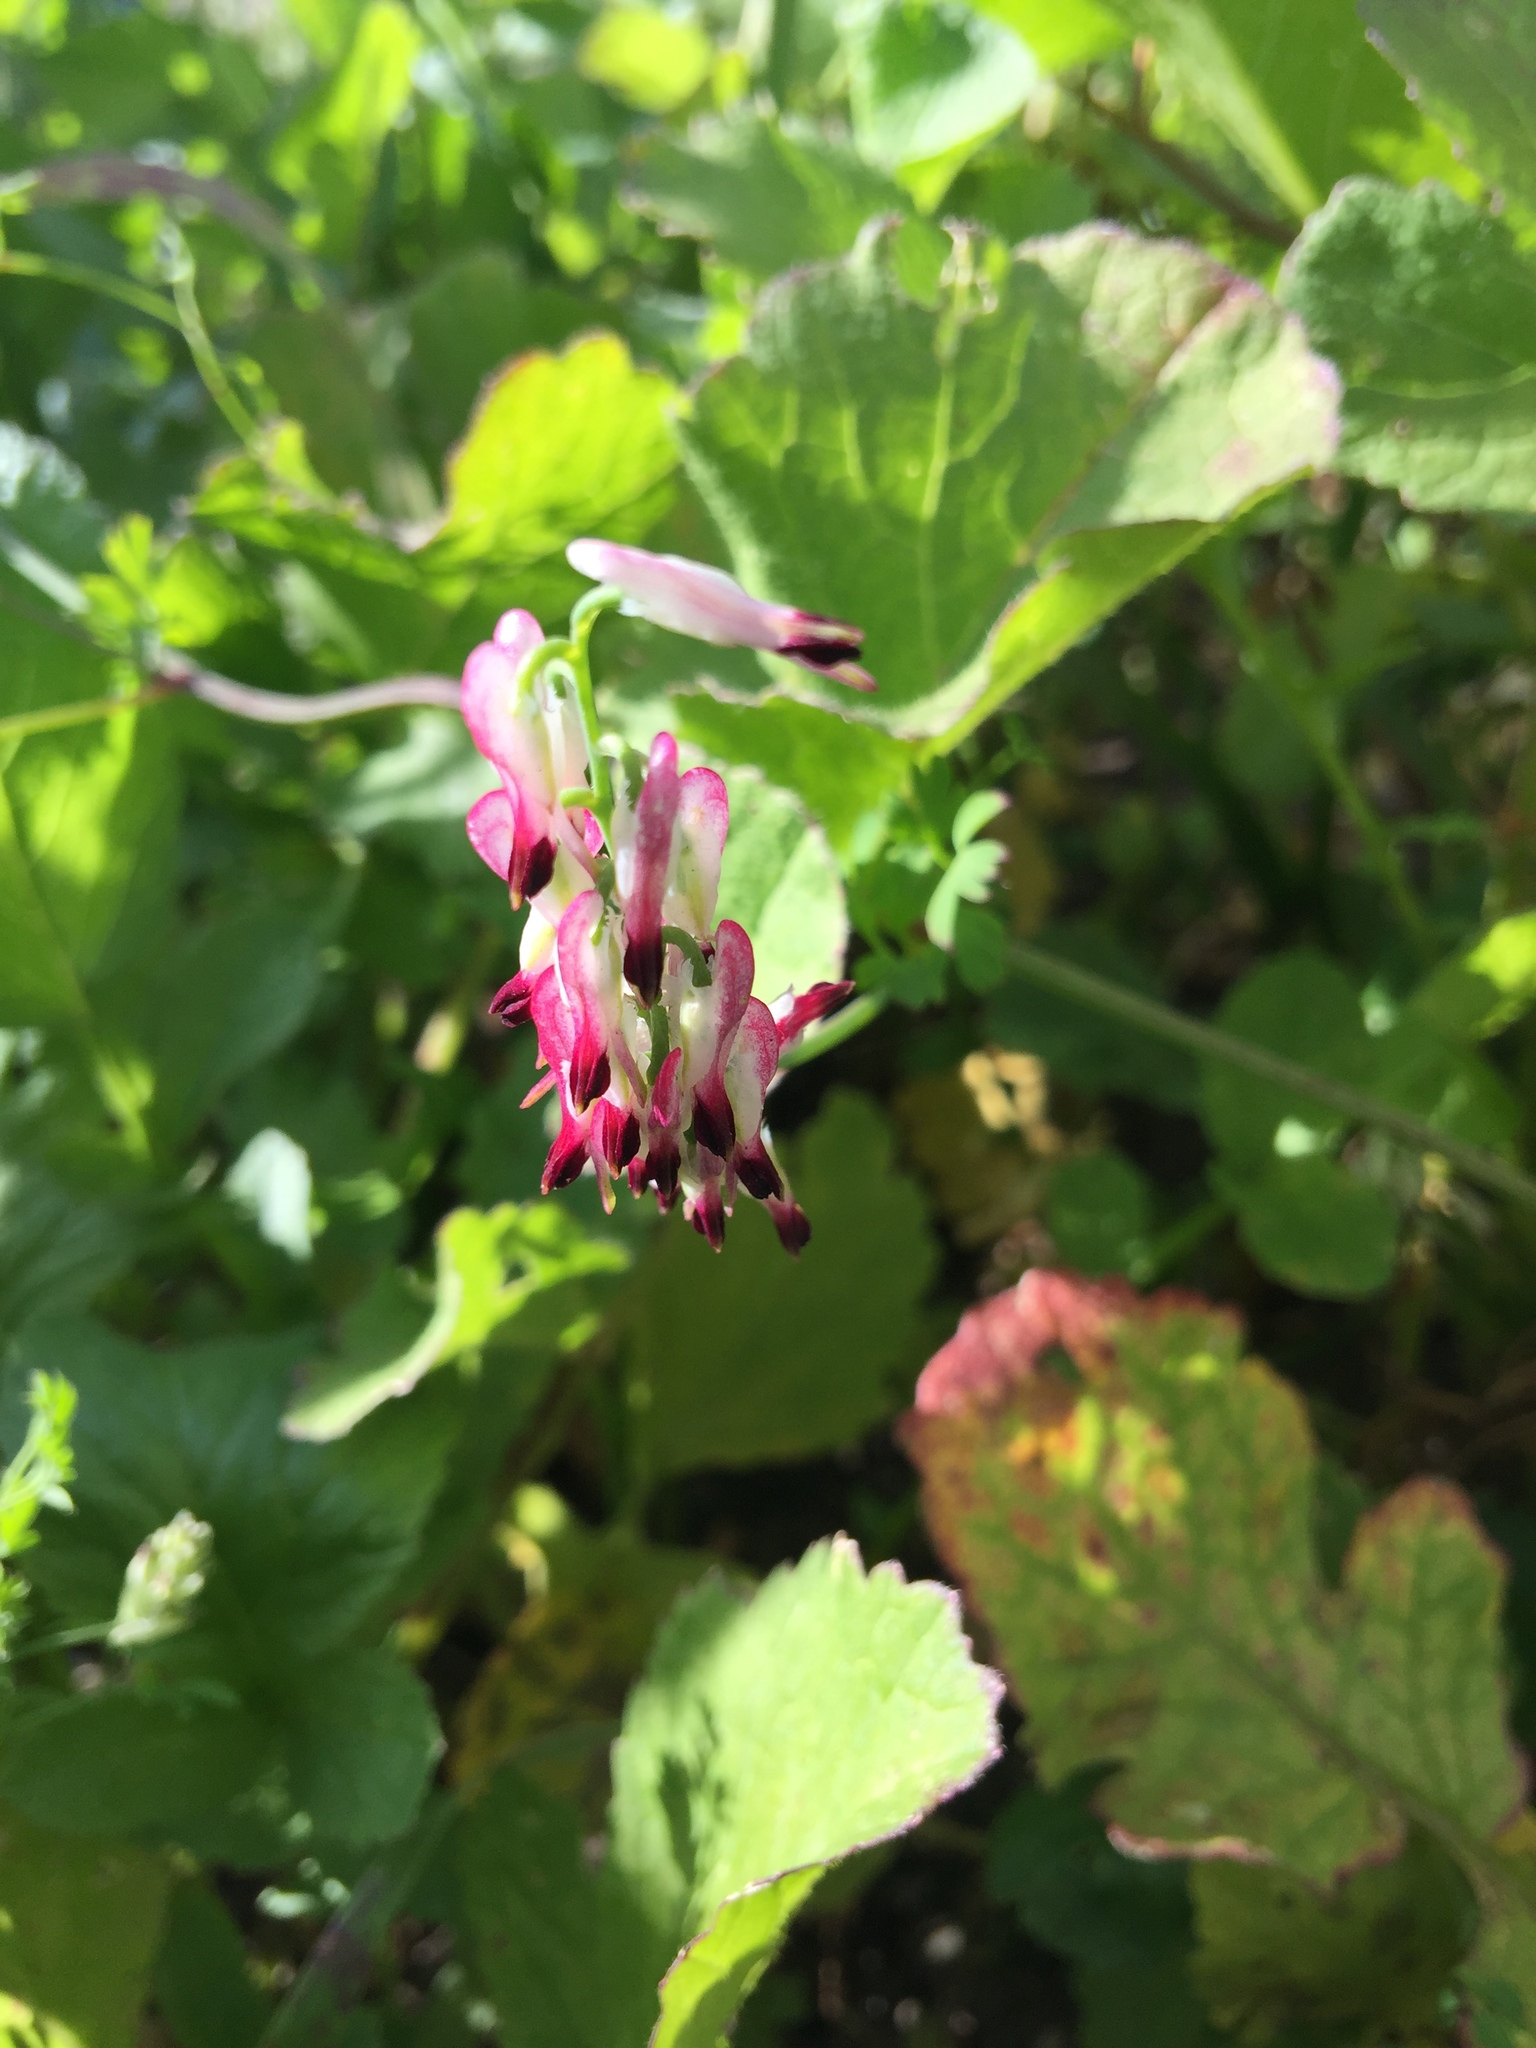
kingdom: Plantae
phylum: Tracheophyta
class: Magnoliopsida
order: Ranunculales
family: Papaveraceae
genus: Fumaria
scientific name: Fumaria capreolata
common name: White ramping-fumitory
